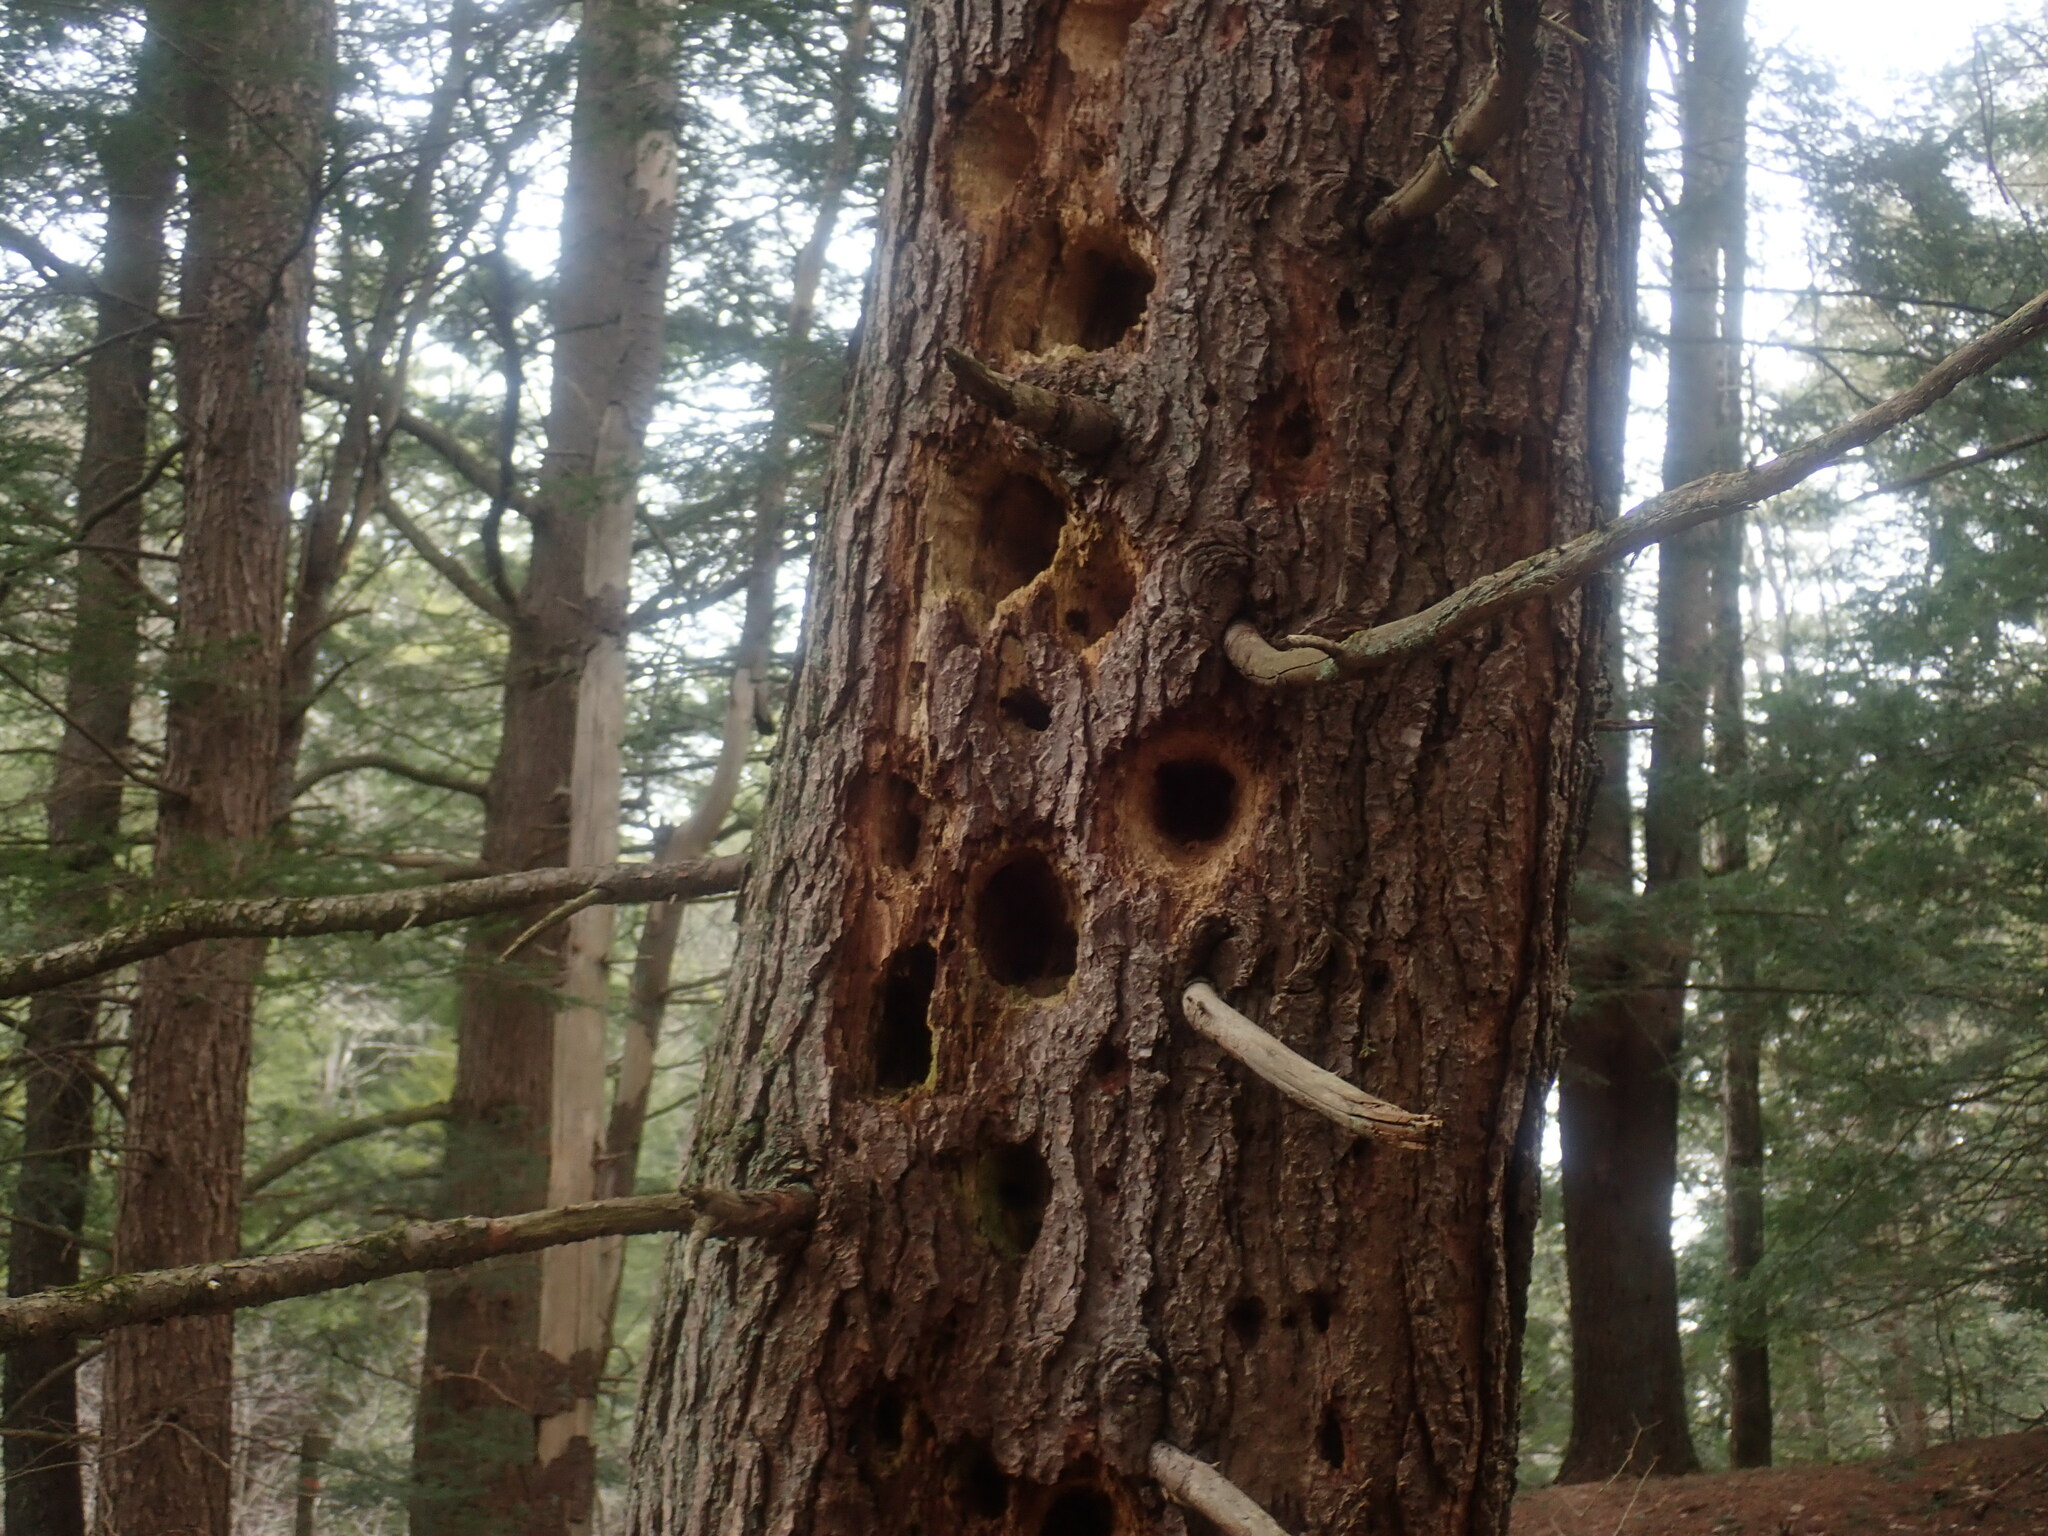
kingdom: Animalia
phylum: Chordata
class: Aves
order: Piciformes
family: Picidae
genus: Dryocopus
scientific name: Dryocopus pileatus
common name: Pileated woodpecker
